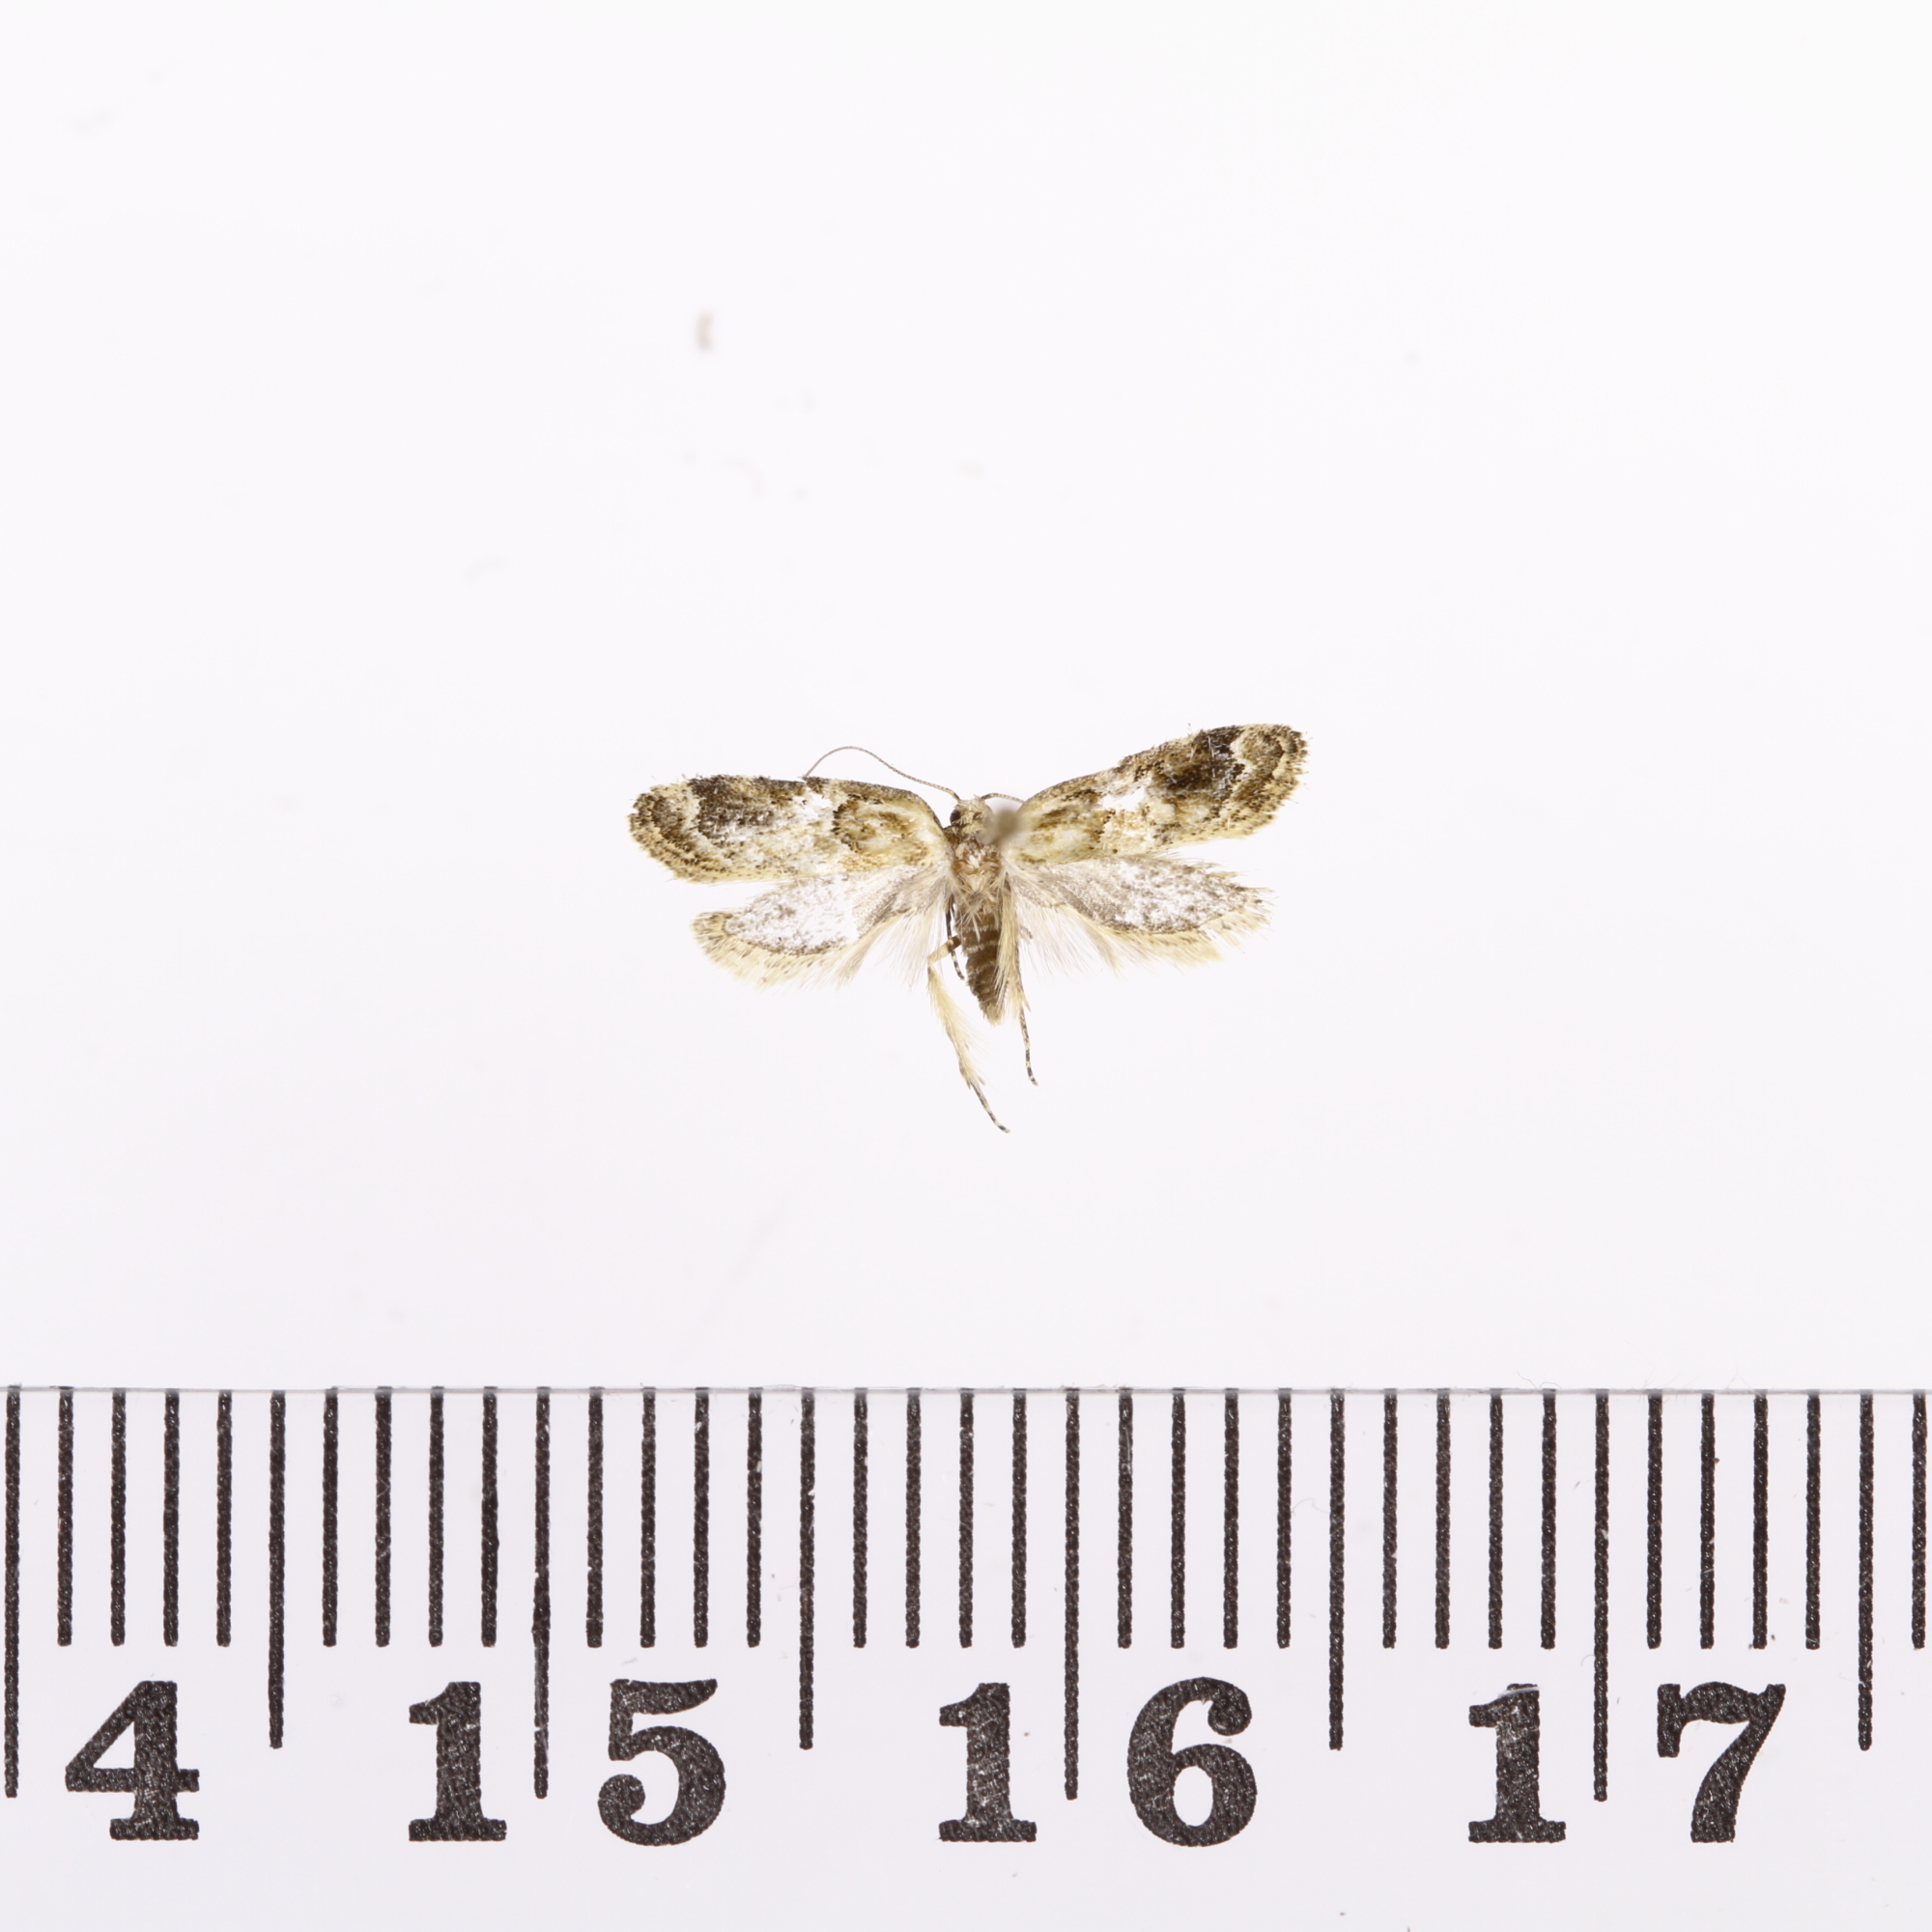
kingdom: Animalia
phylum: Arthropoda
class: Insecta
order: Lepidoptera
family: Oecophoridae
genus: Trachypepla
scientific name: Trachypepla aspidephora
